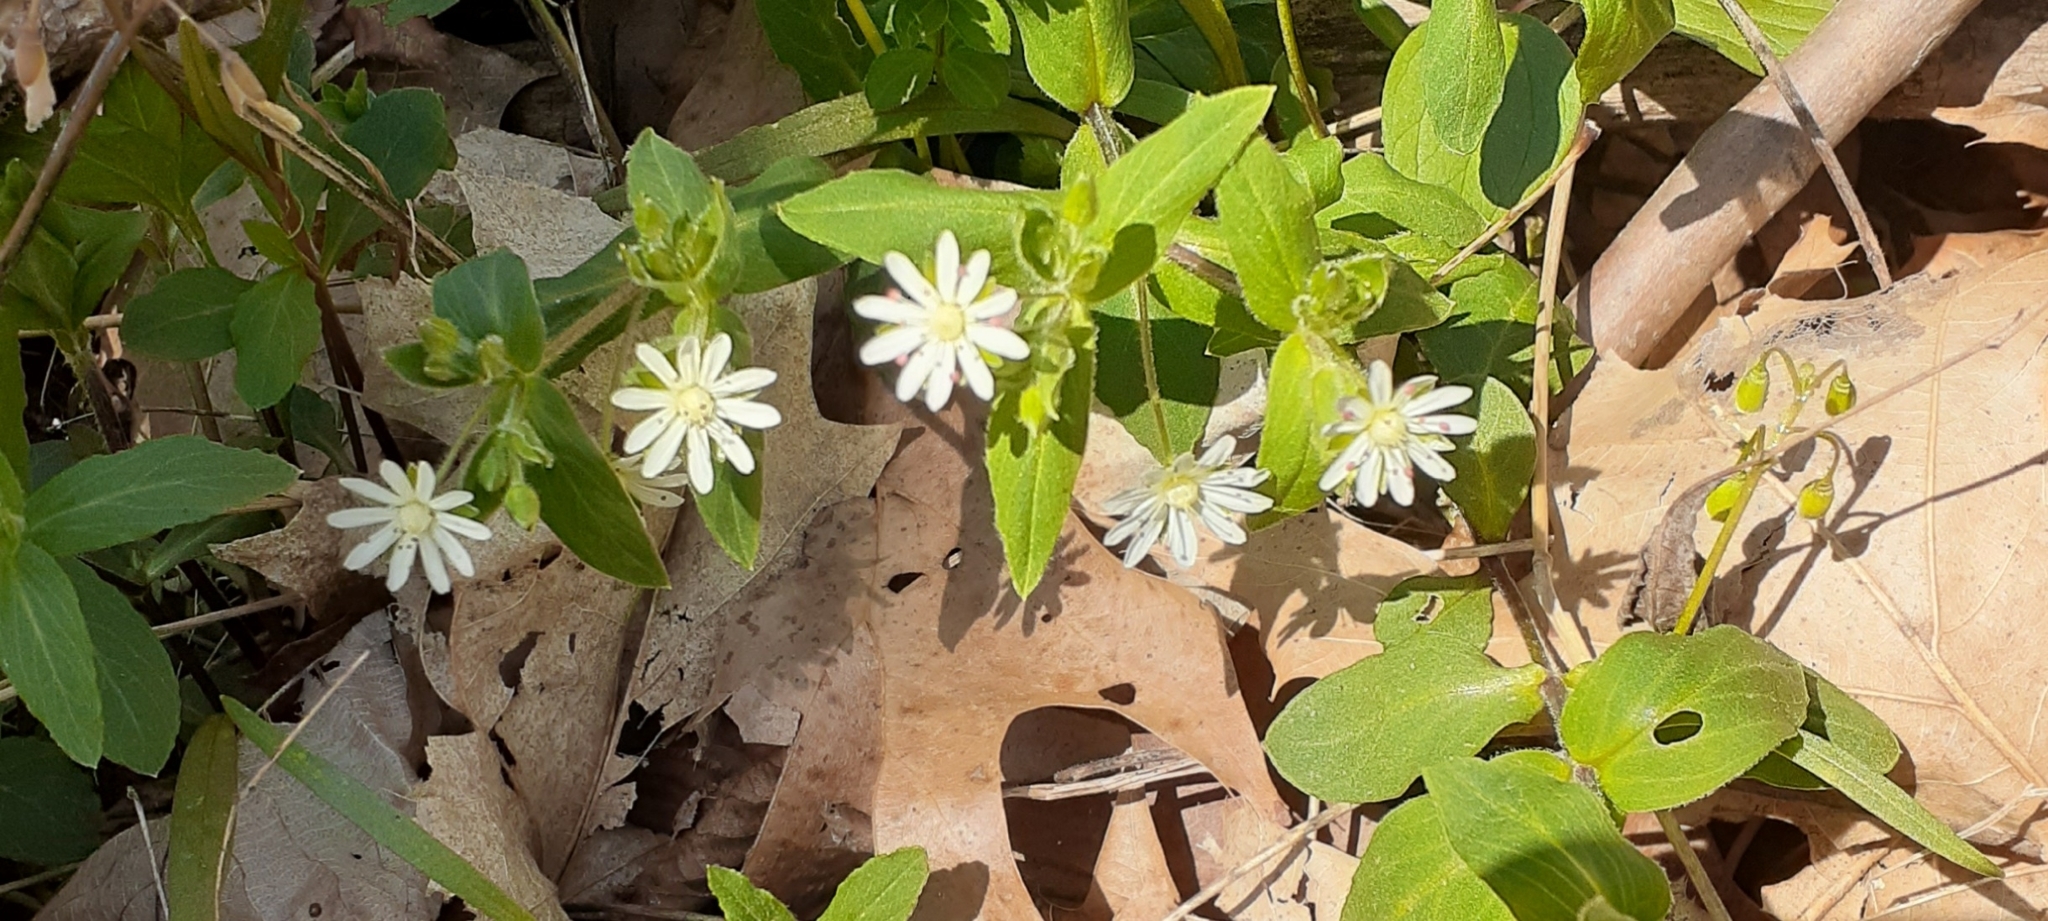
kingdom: Plantae
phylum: Tracheophyta
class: Magnoliopsida
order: Caryophyllales
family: Caryophyllaceae
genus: Stellaria
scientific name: Stellaria pubera
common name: Star chickweed
